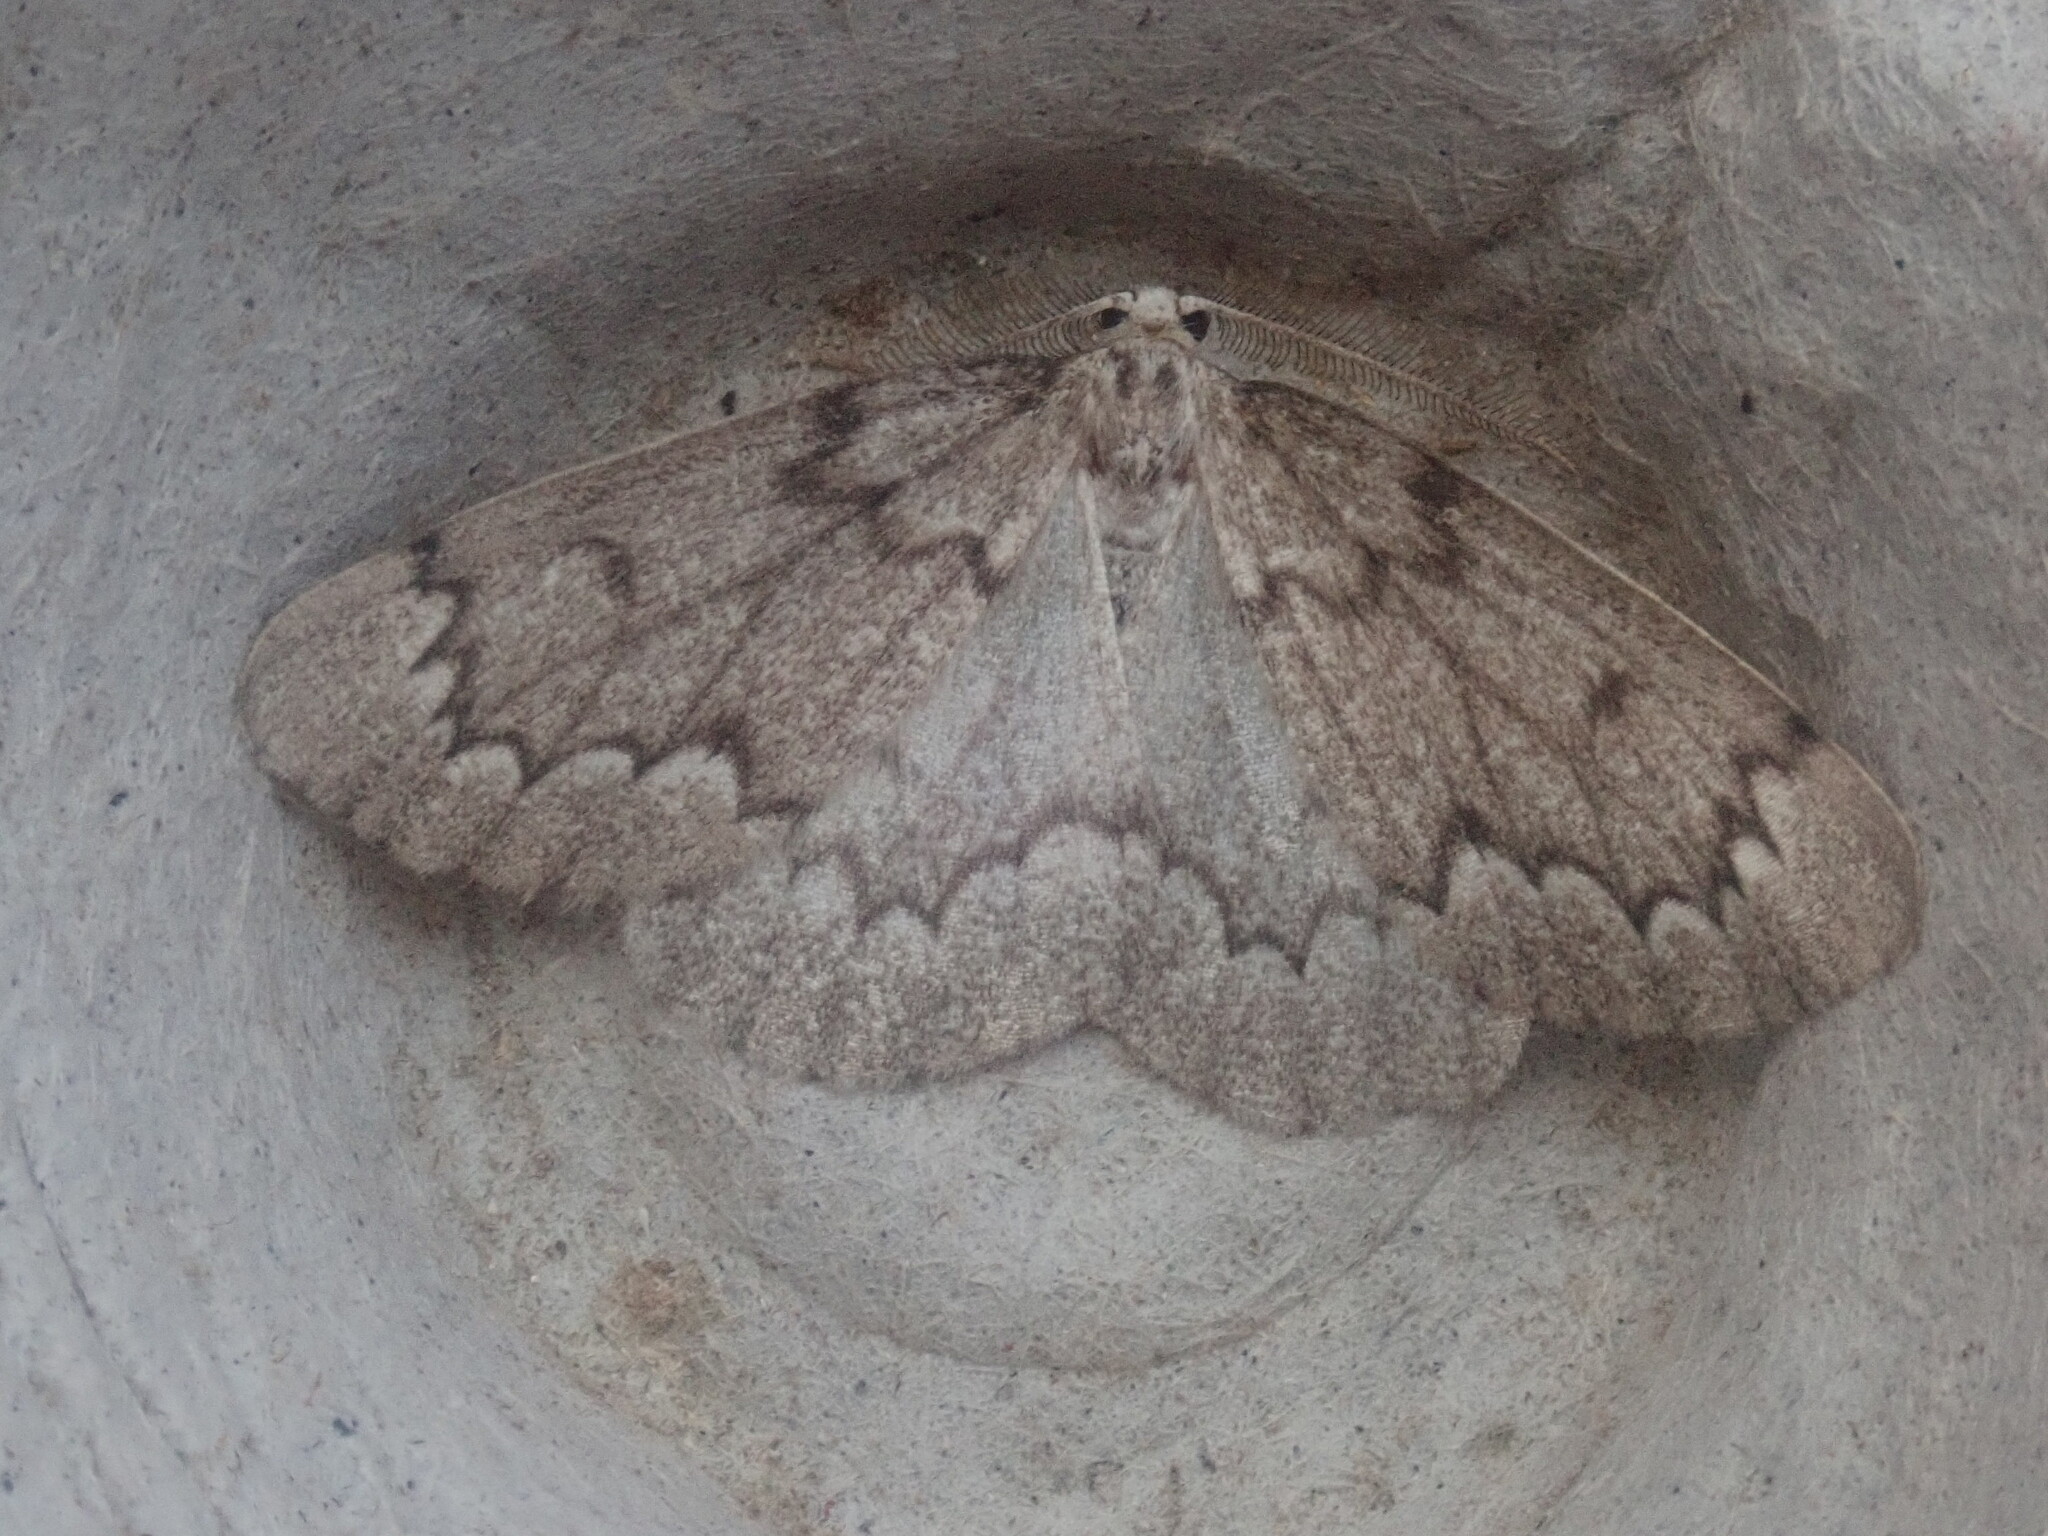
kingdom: Animalia
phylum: Arthropoda
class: Insecta
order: Lepidoptera
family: Geometridae
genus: Nepytia
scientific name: Nepytia canosaria
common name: False hemlock looper
